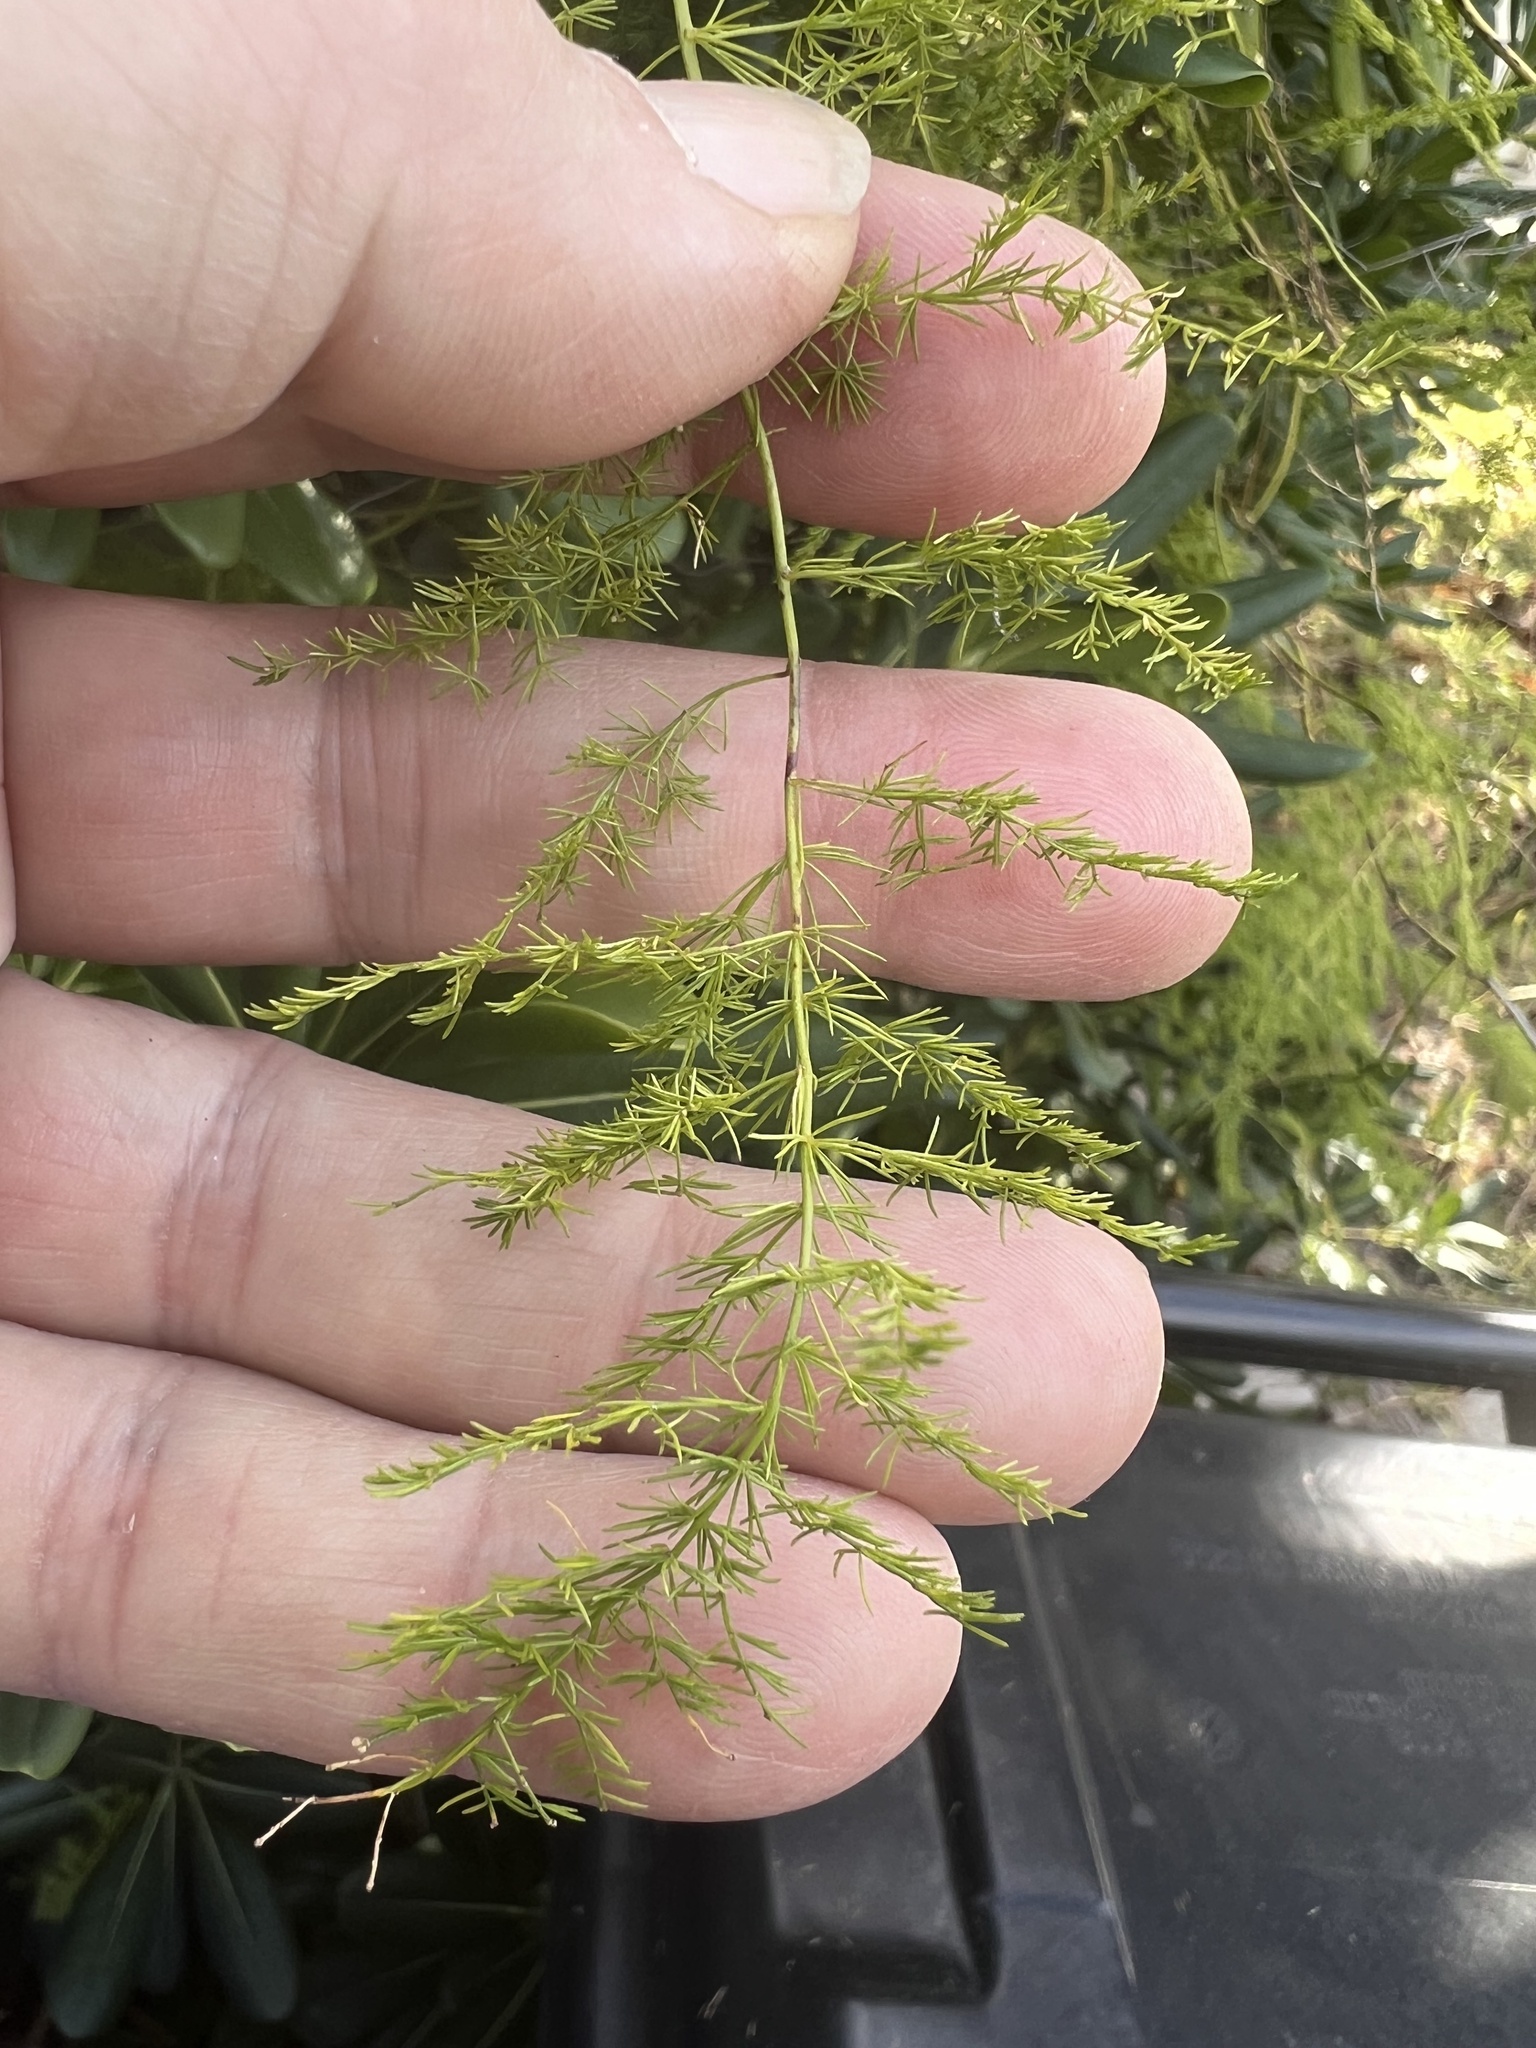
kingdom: Plantae
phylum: Tracheophyta
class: Liliopsida
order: Asparagales
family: Asparagaceae
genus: Asparagus
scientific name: Asparagus setaceus
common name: Common asparagus fern
